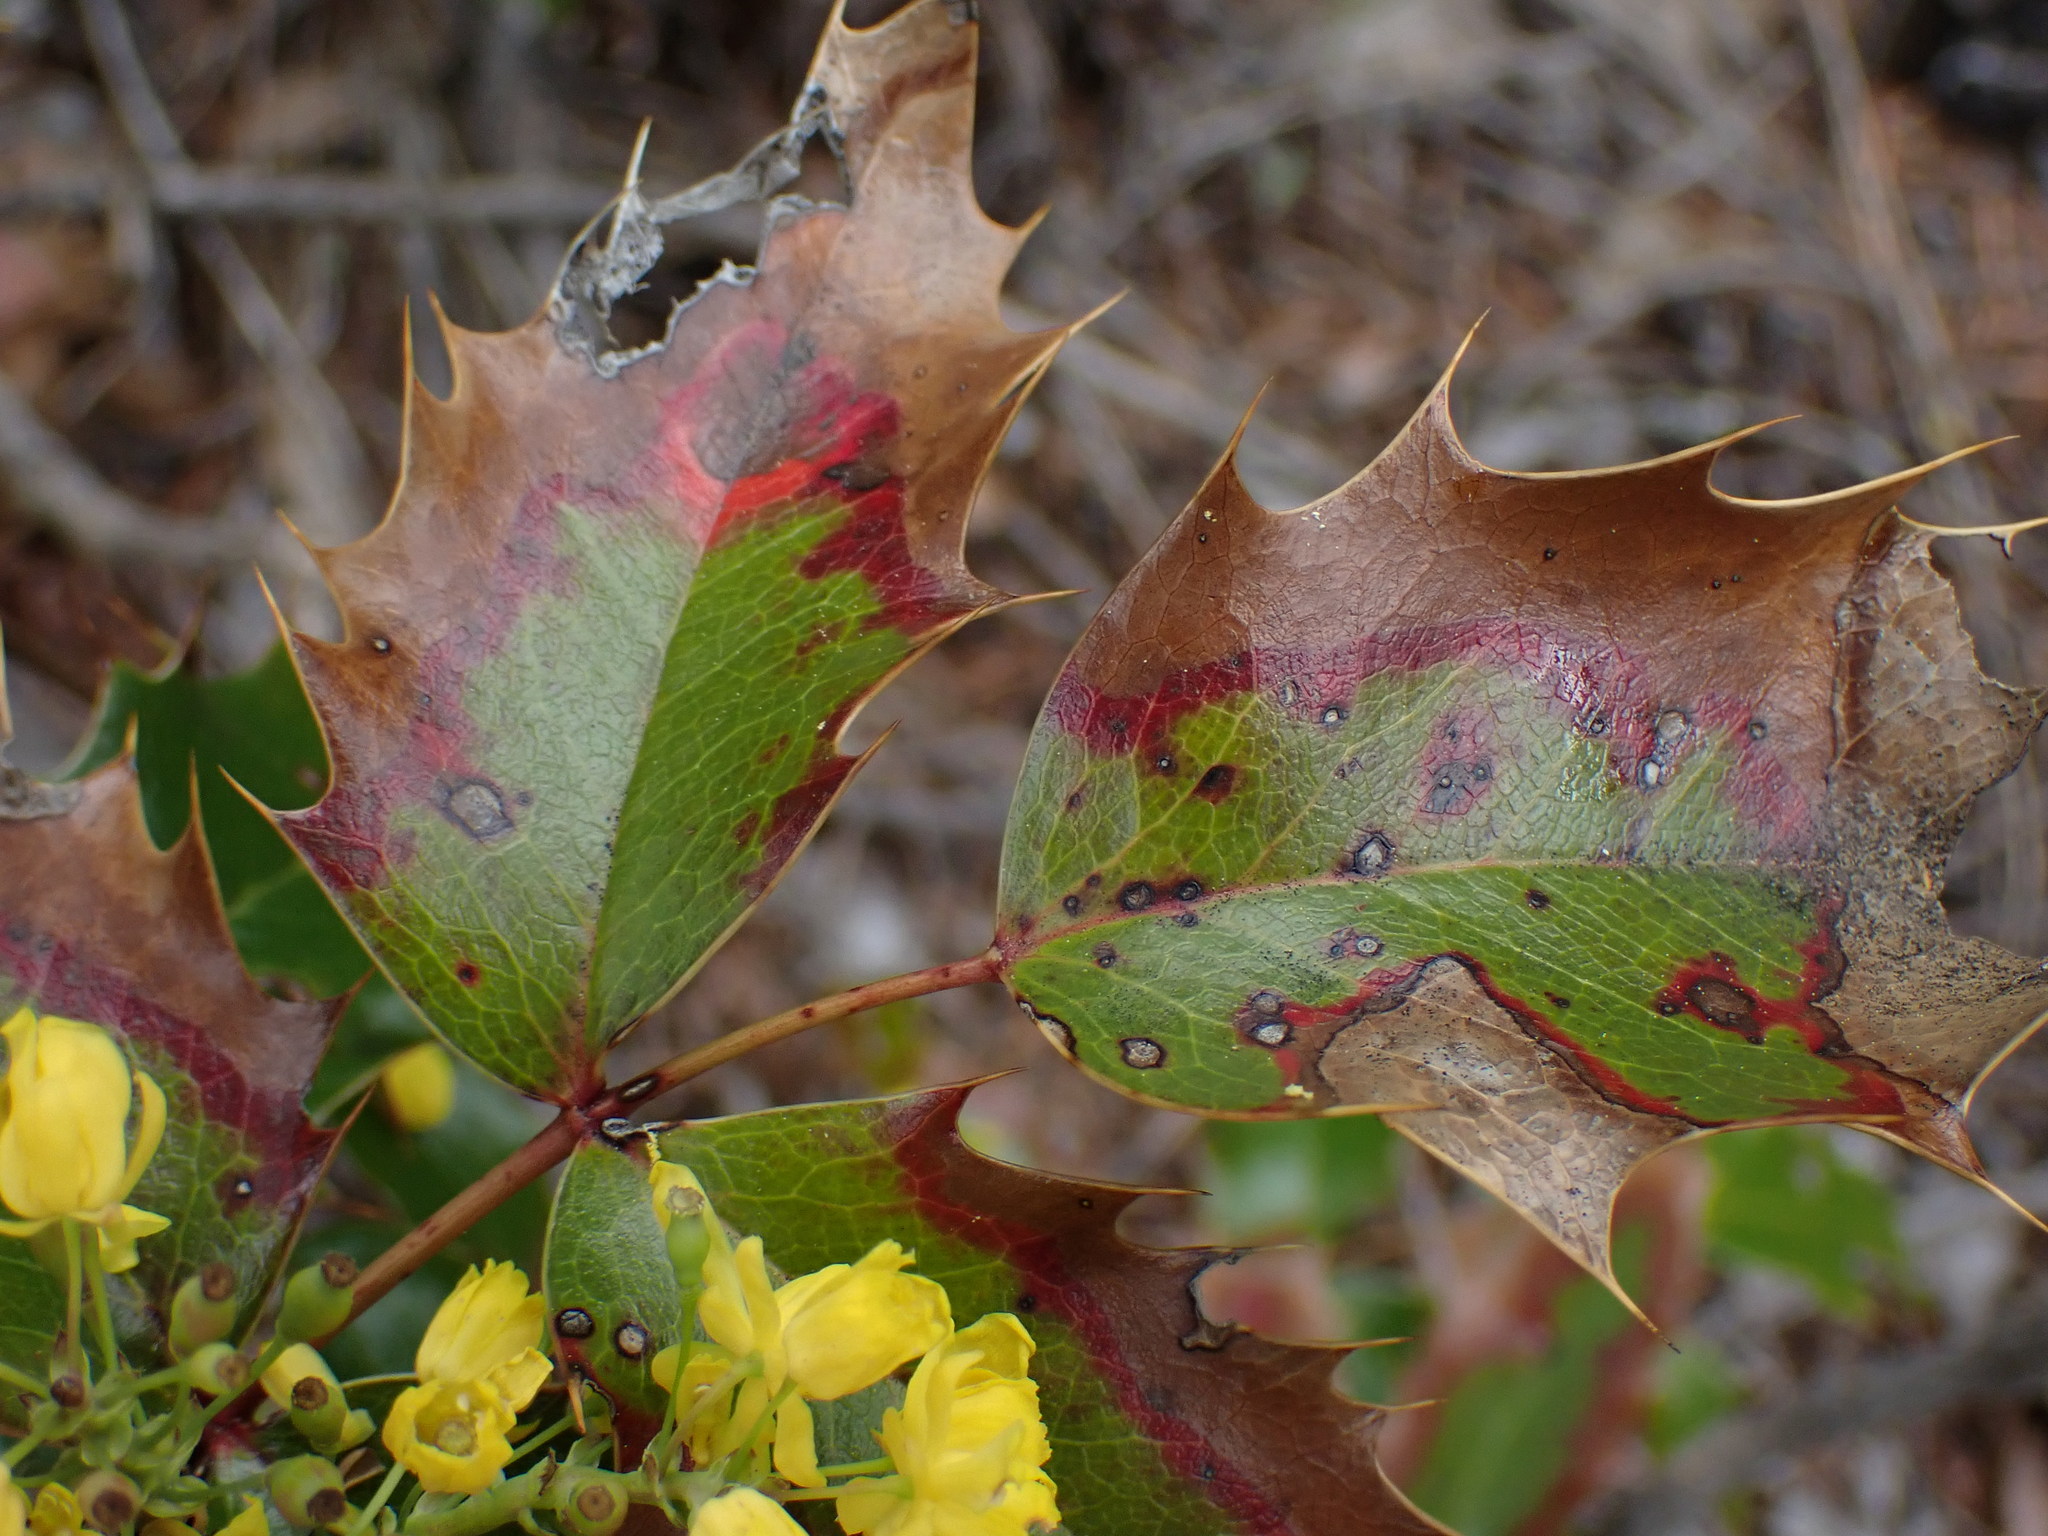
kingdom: Plantae
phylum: Tracheophyta
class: Magnoliopsida
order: Ranunculales
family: Berberidaceae
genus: Mahonia
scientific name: Mahonia aquifolium
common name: Oregon-grape
